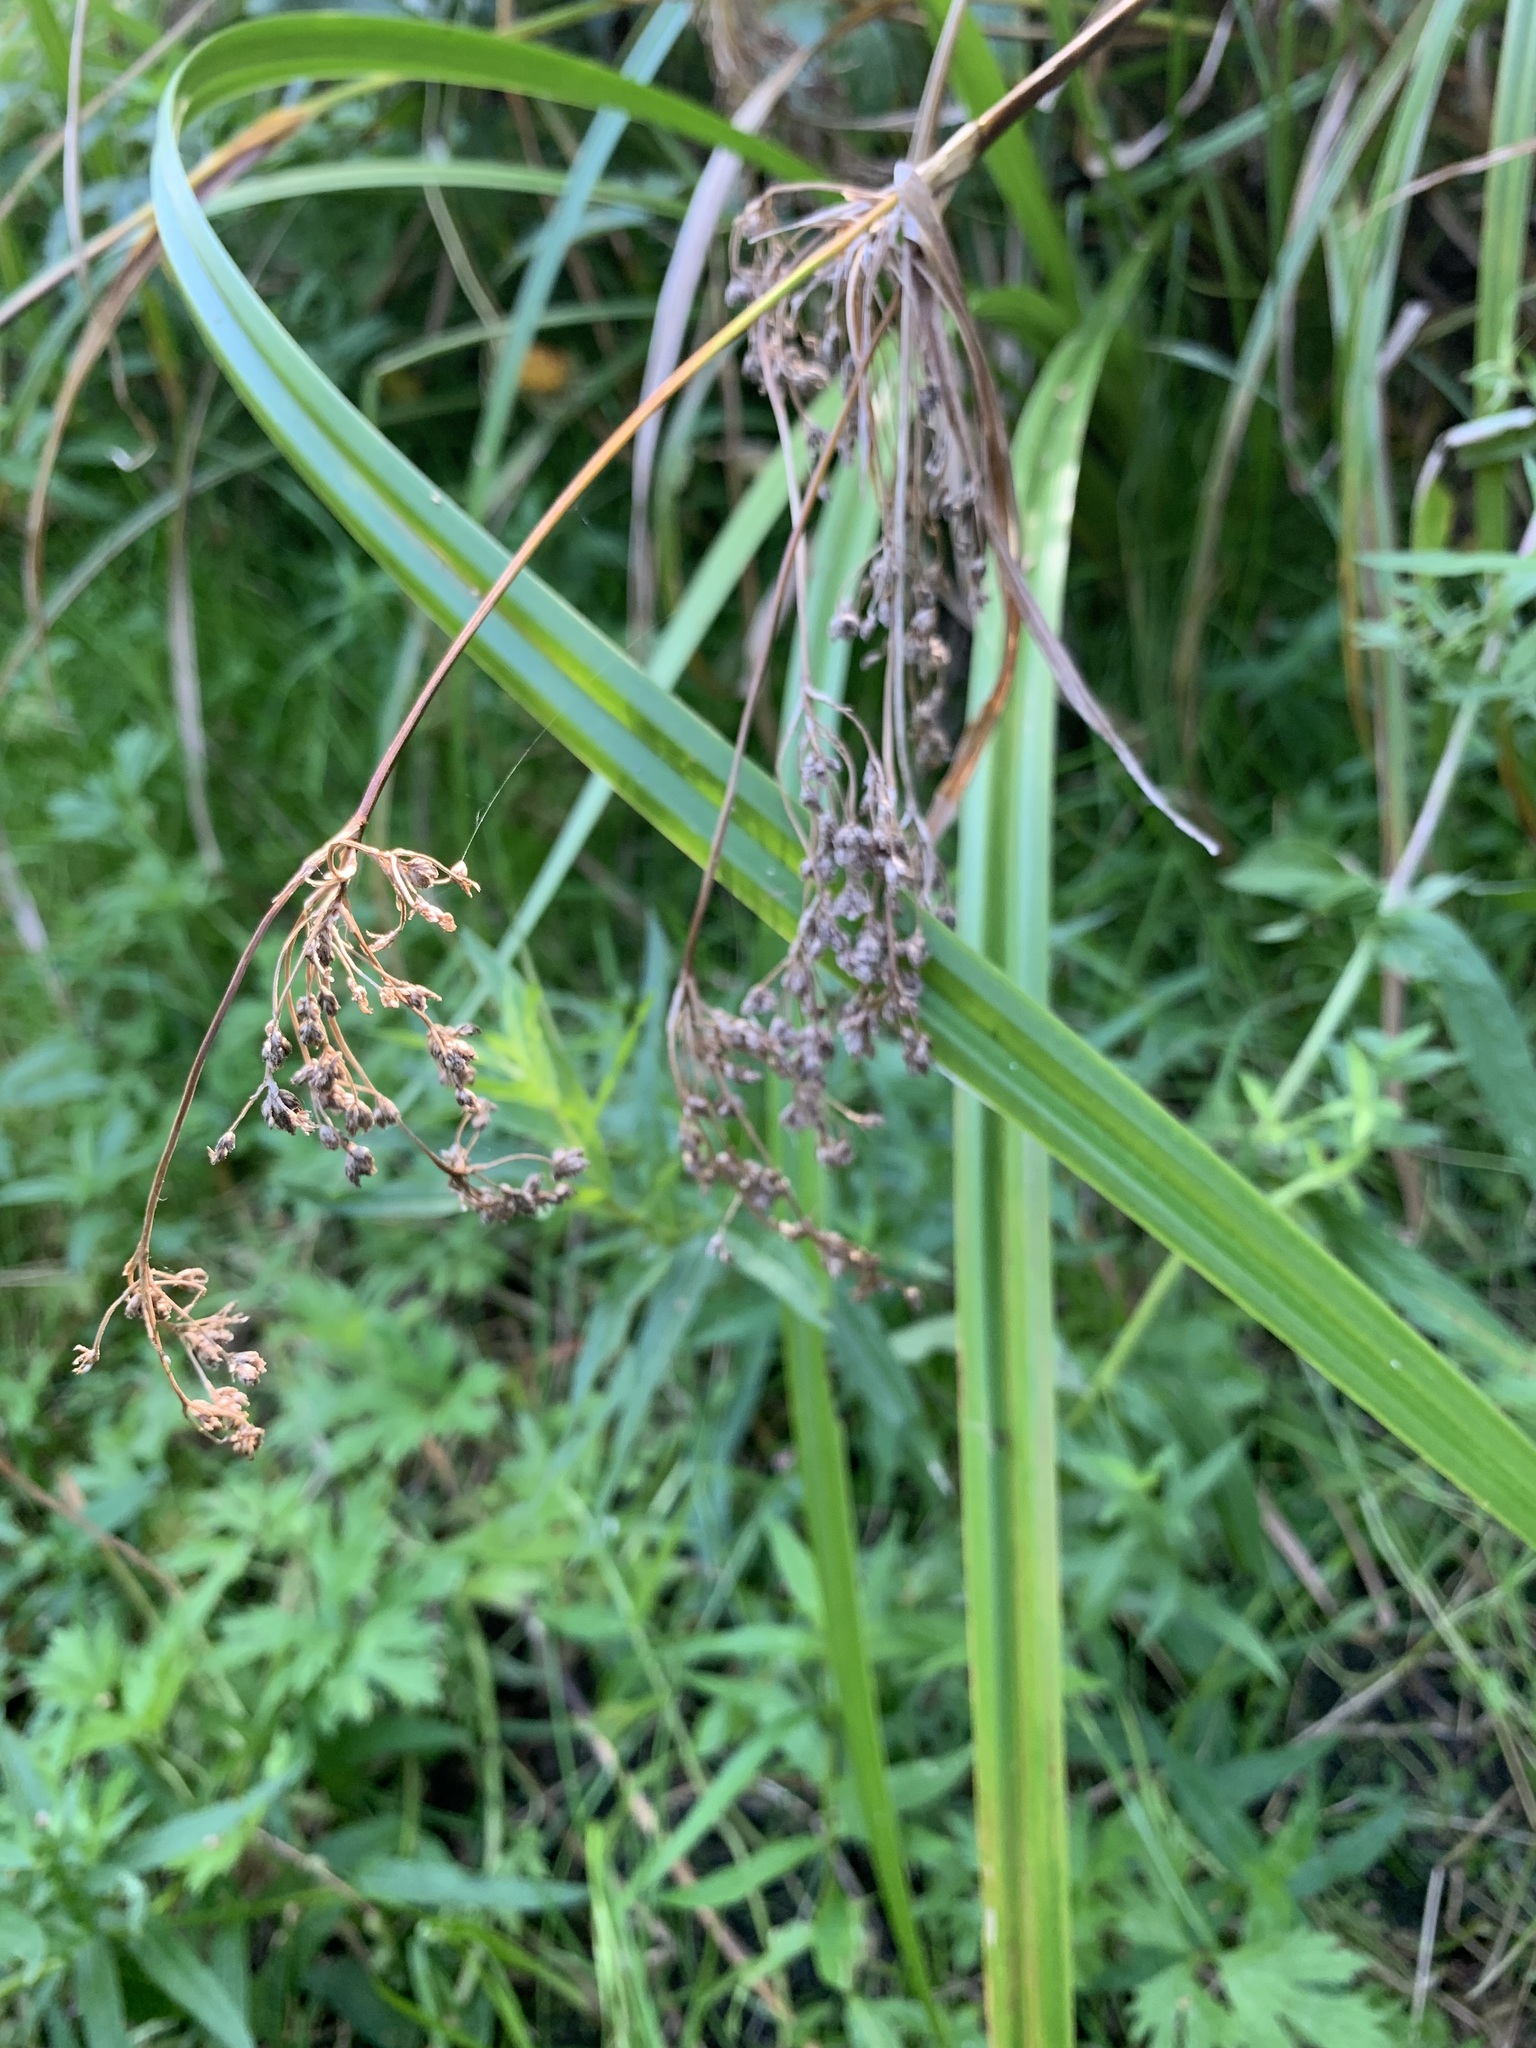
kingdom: Plantae
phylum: Tracheophyta
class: Liliopsida
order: Poales
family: Cyperaceae
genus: Scirpus
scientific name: Scirpus sylvaticus
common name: Wood club-rush
